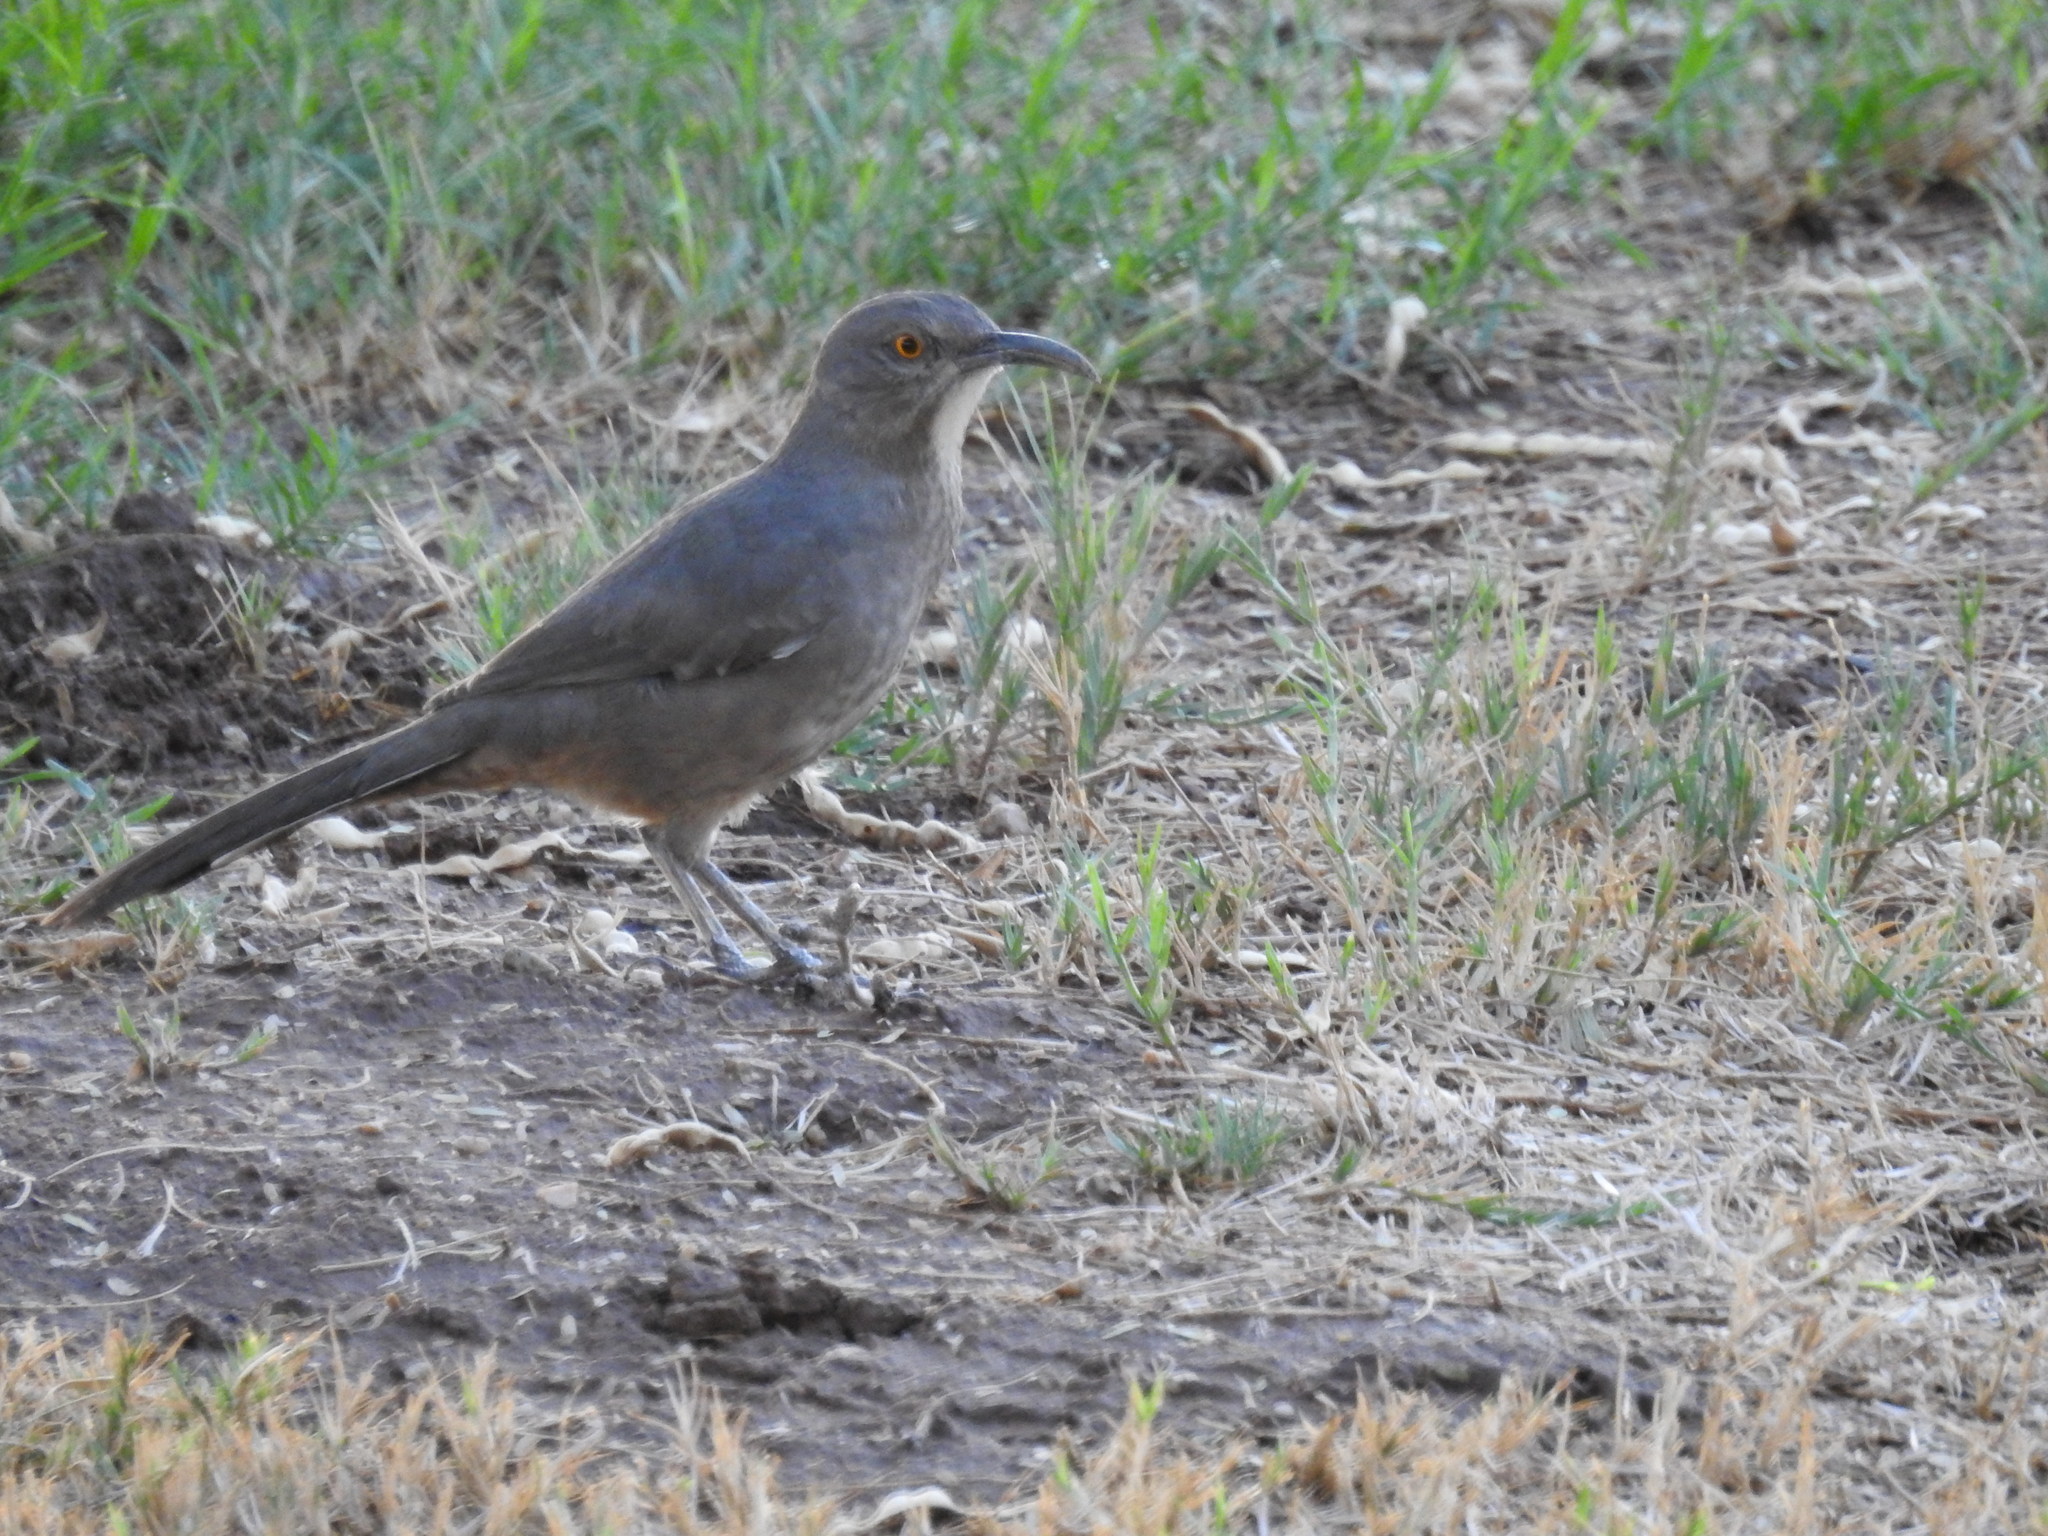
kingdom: Animalia
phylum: Chordata
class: Aves
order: Passeriformes
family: Mimidae
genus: Toxostoma
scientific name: Toxostoma curvirostre
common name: Curve-billed thrasher
